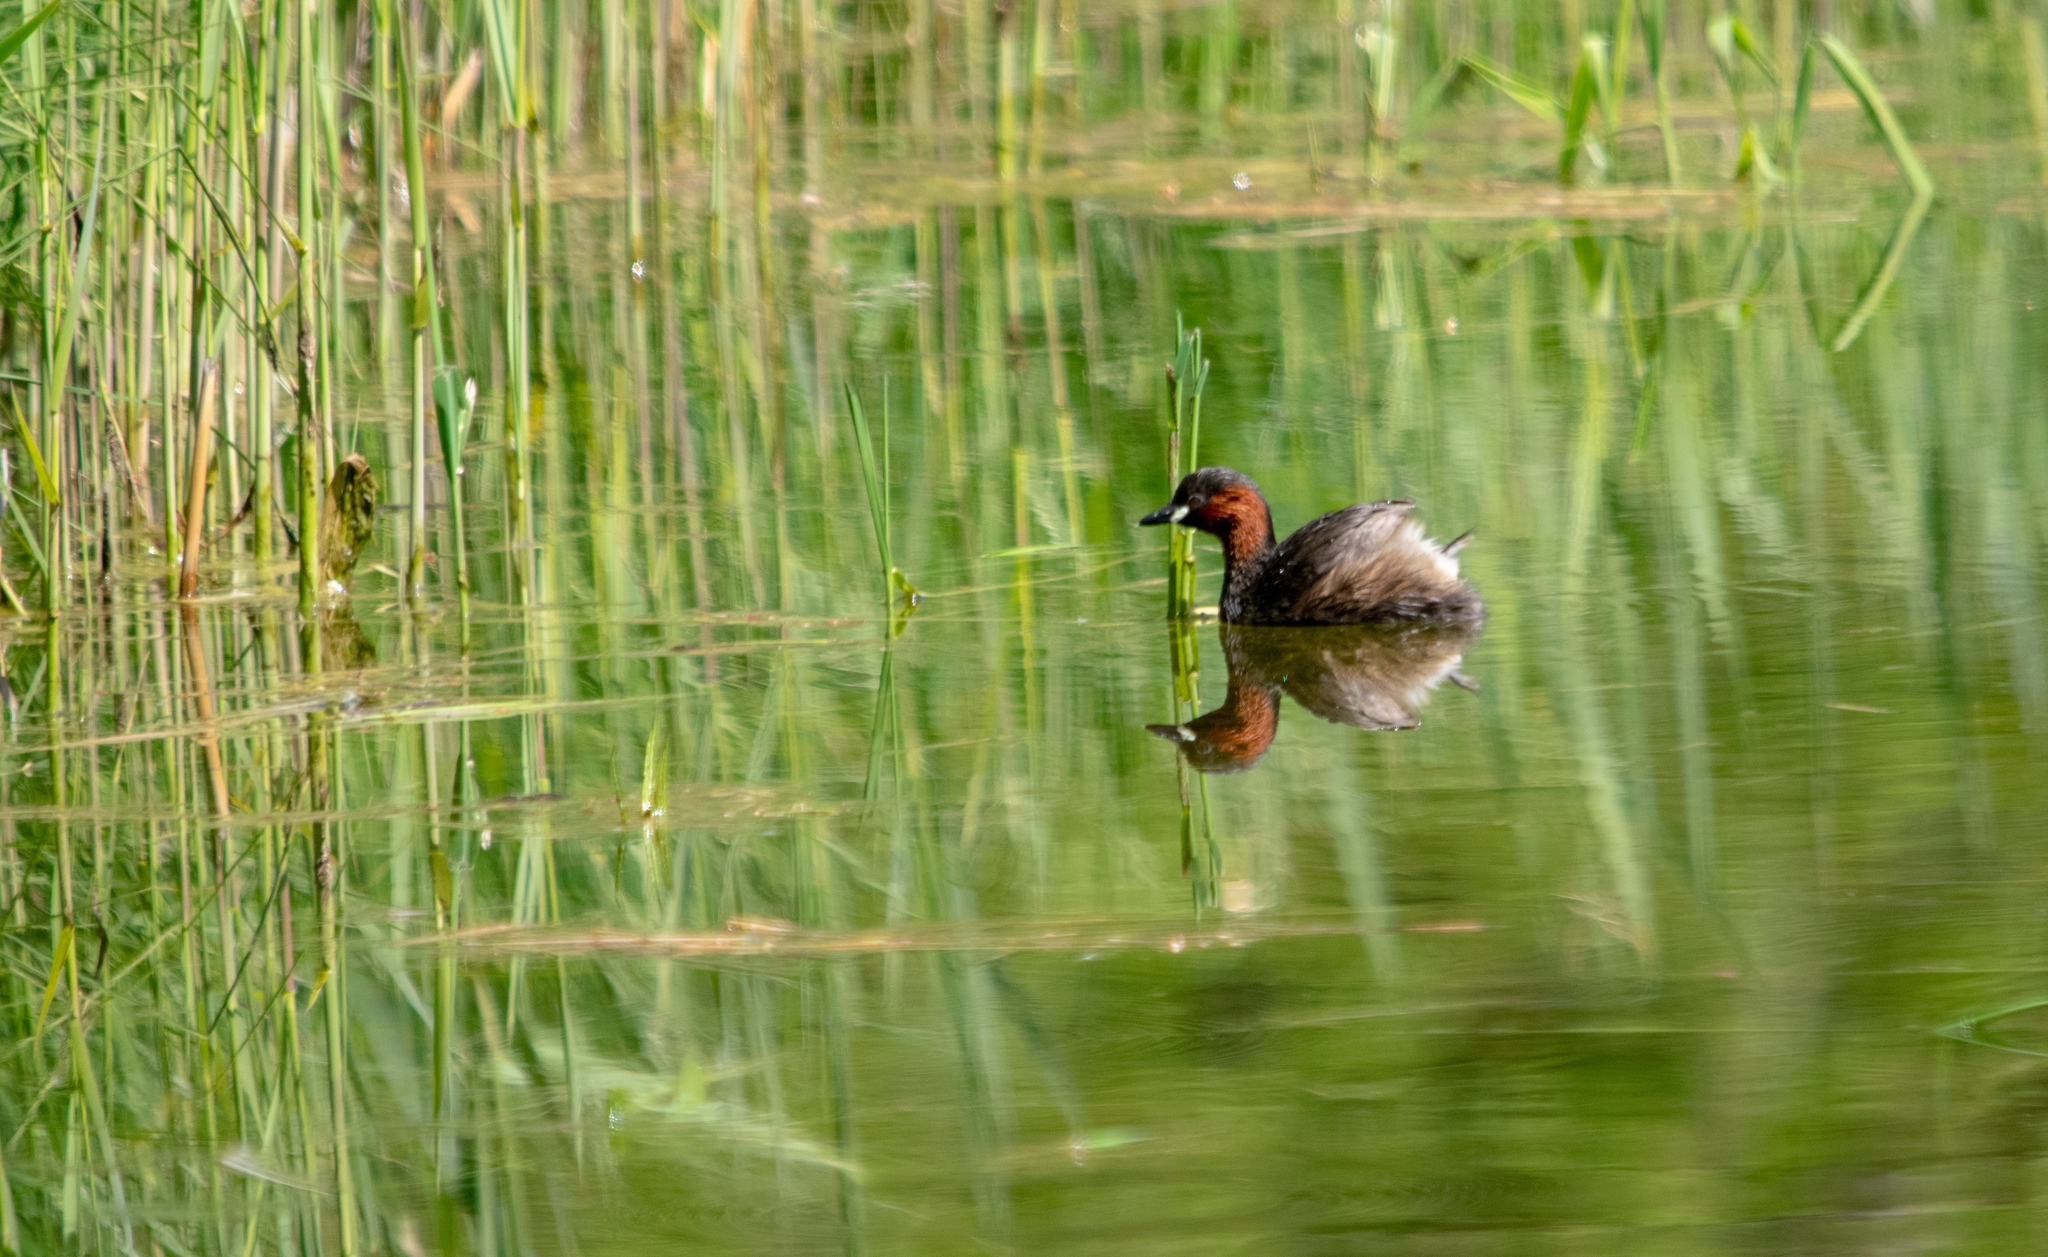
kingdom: Animalia
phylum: Chordata
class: Aves
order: Podicipediformes
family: Podicipedidae
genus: Tachybaptus
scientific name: Tachybaptus ruficollis
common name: Little grebe
